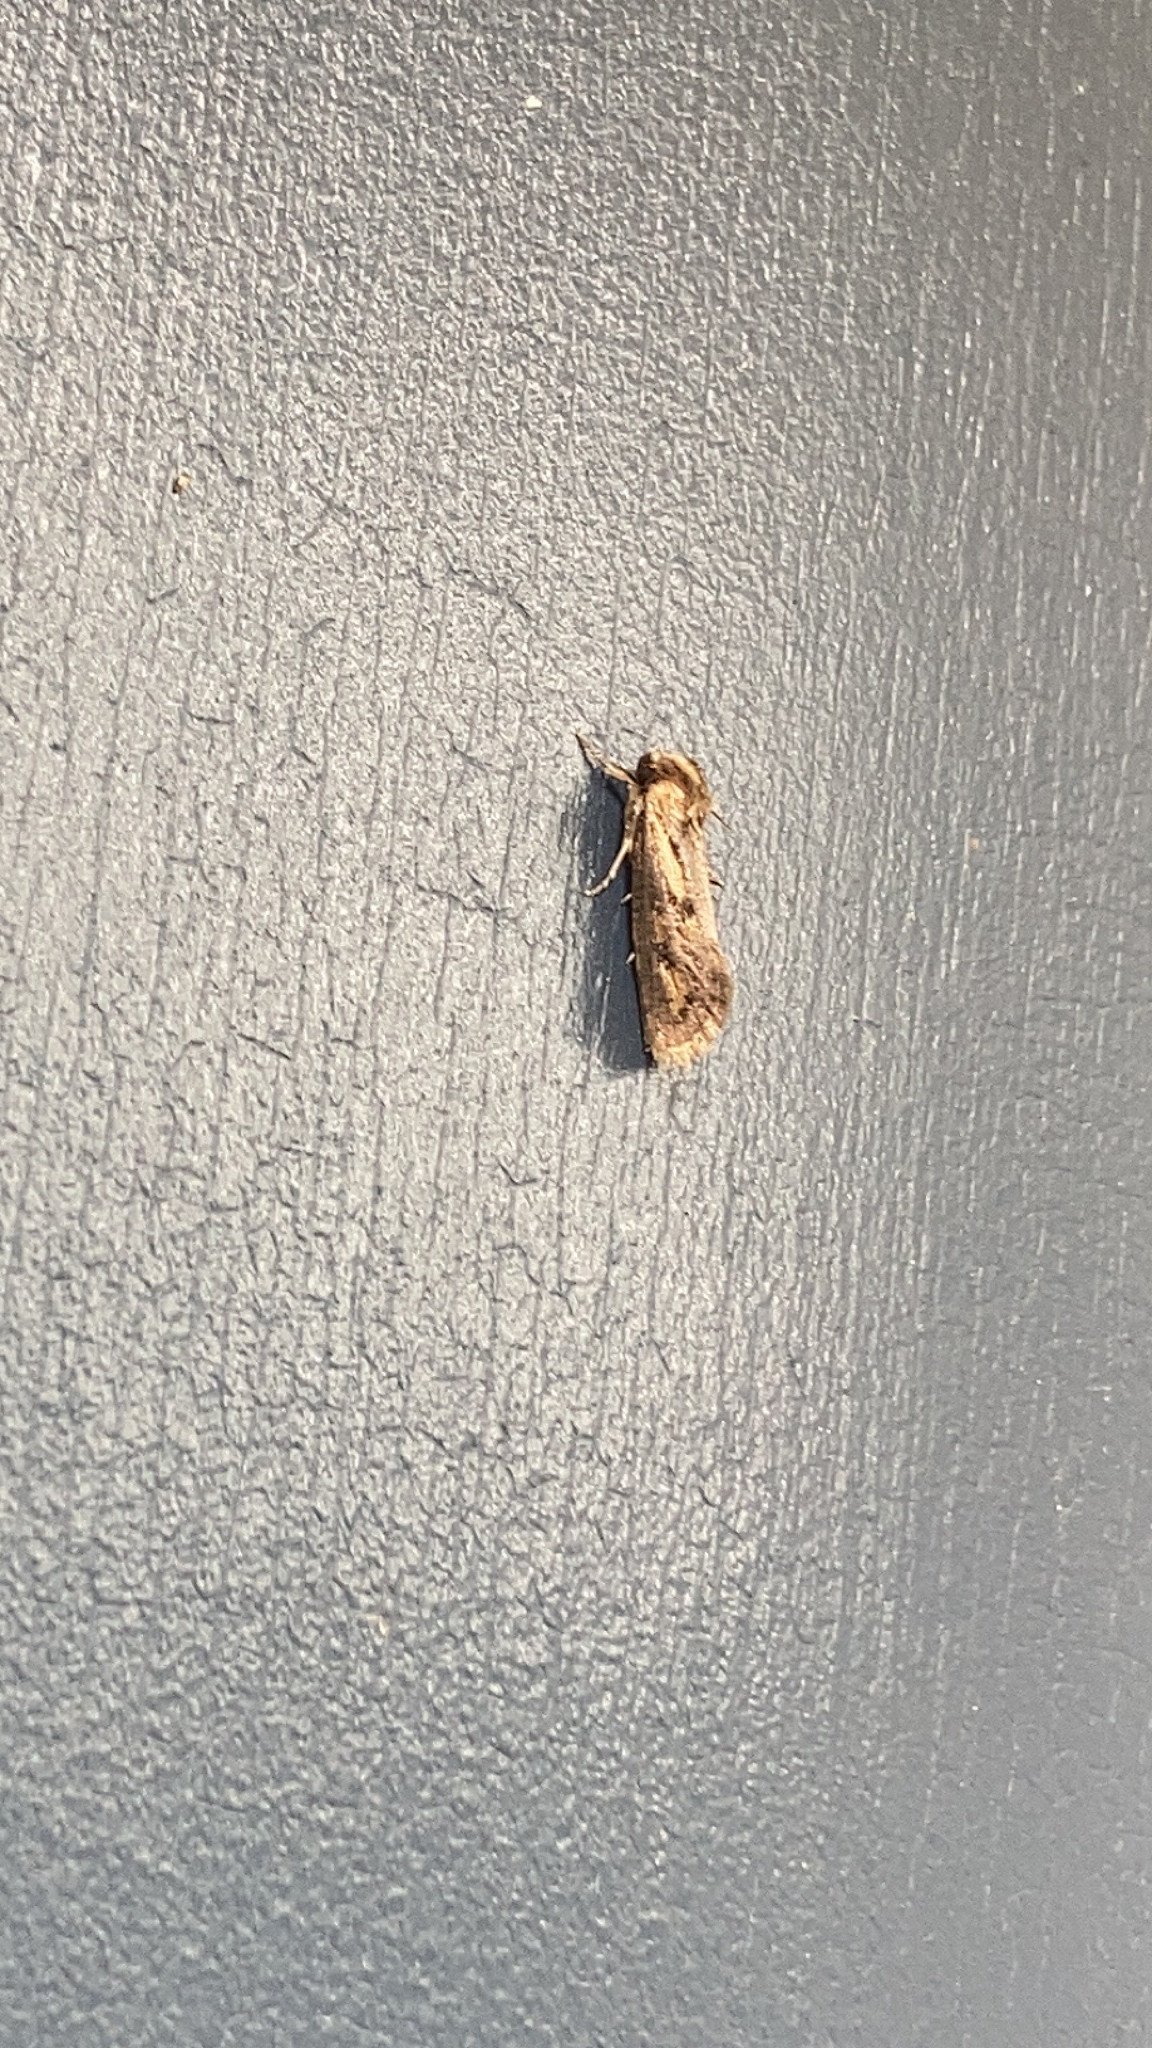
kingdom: Animalia
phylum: Arthropoda
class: Insecta
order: Lepidoptera
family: Tineidae
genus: Acrolophus
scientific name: Acrolophus popeanella
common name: Clemens' grass tubeworm moth
